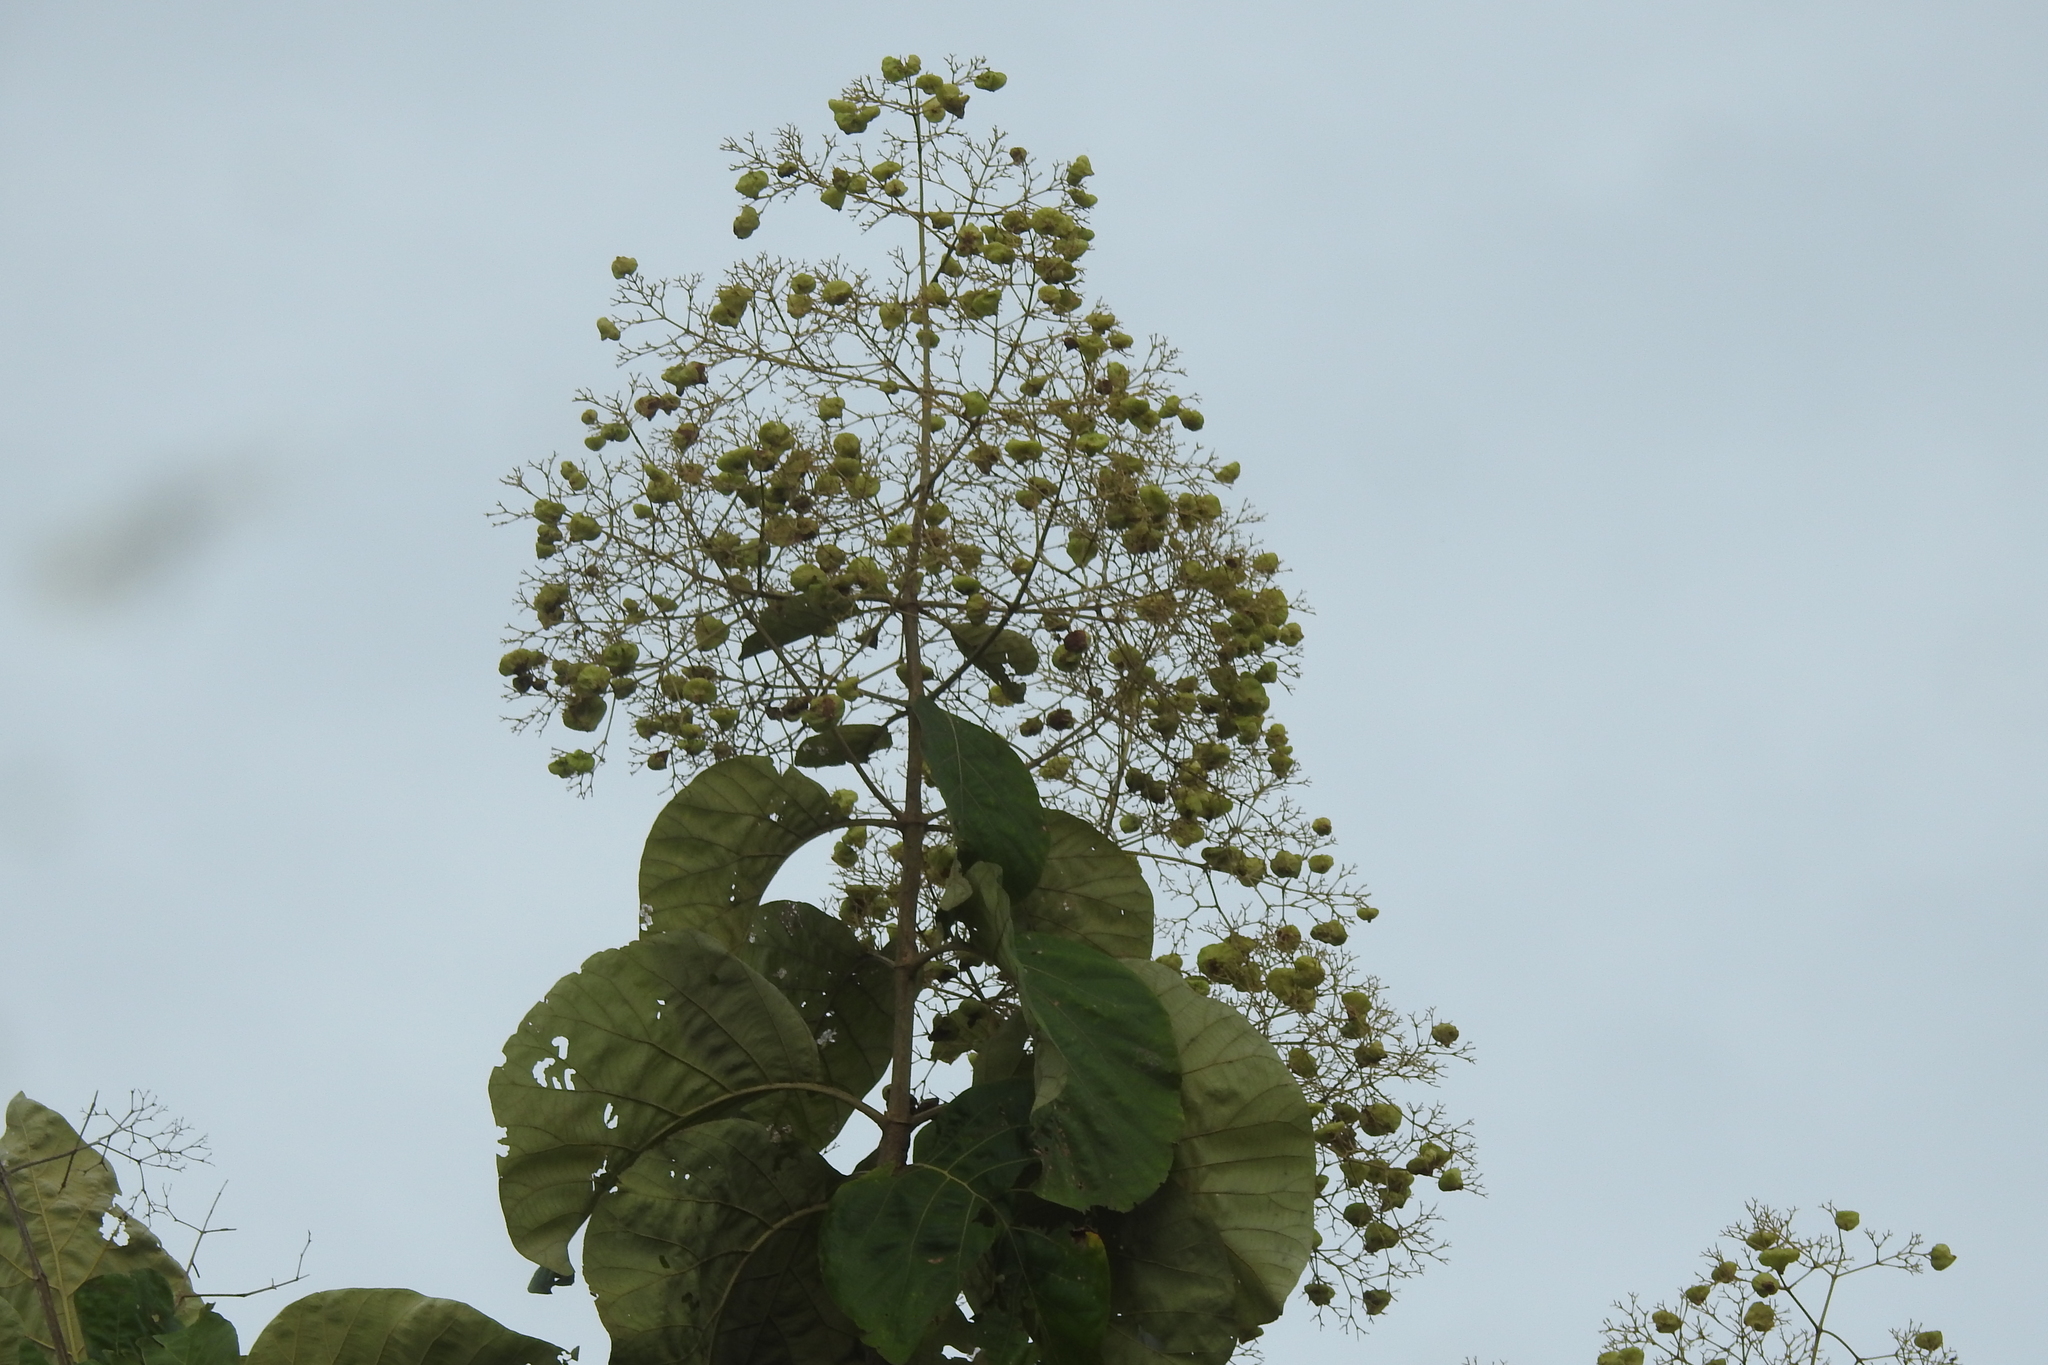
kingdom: Plantae
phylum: Tracheophyta
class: Magnoliopsida
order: Lamiales
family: Lamiaceae
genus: Tectona
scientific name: Tectona grandis
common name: Teak
